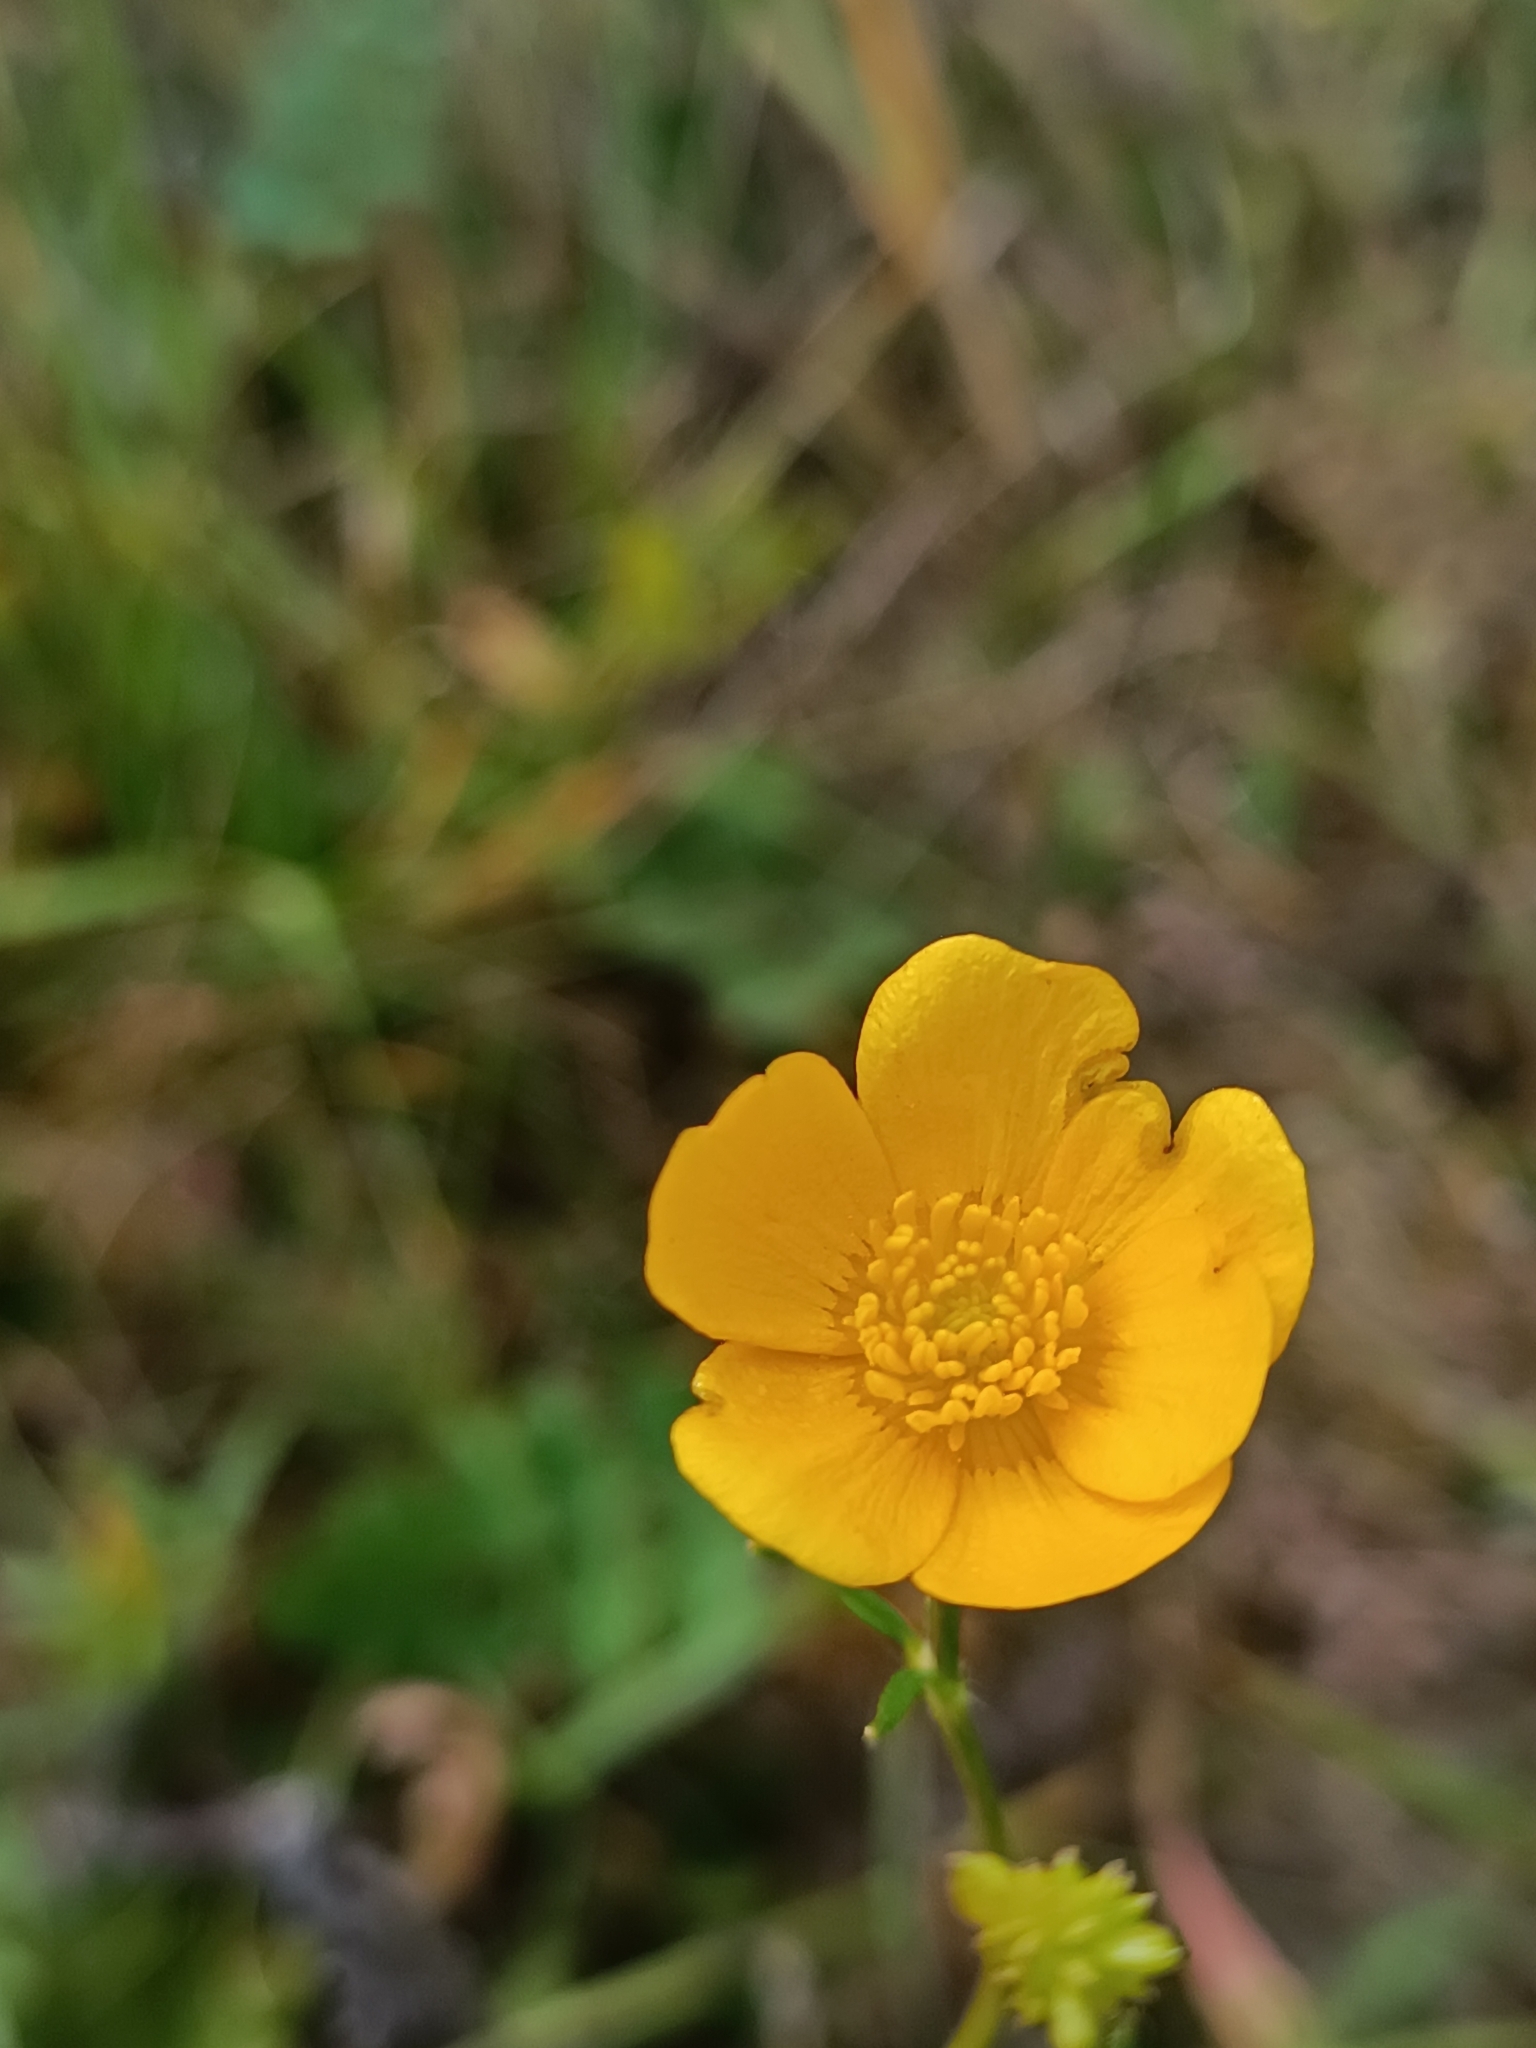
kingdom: Plantae
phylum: Tracheophyta
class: Magnoliopsida
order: Ranunculales
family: Ranunculaceae
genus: Ranunculus
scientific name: Ranunculus polyanthemos
